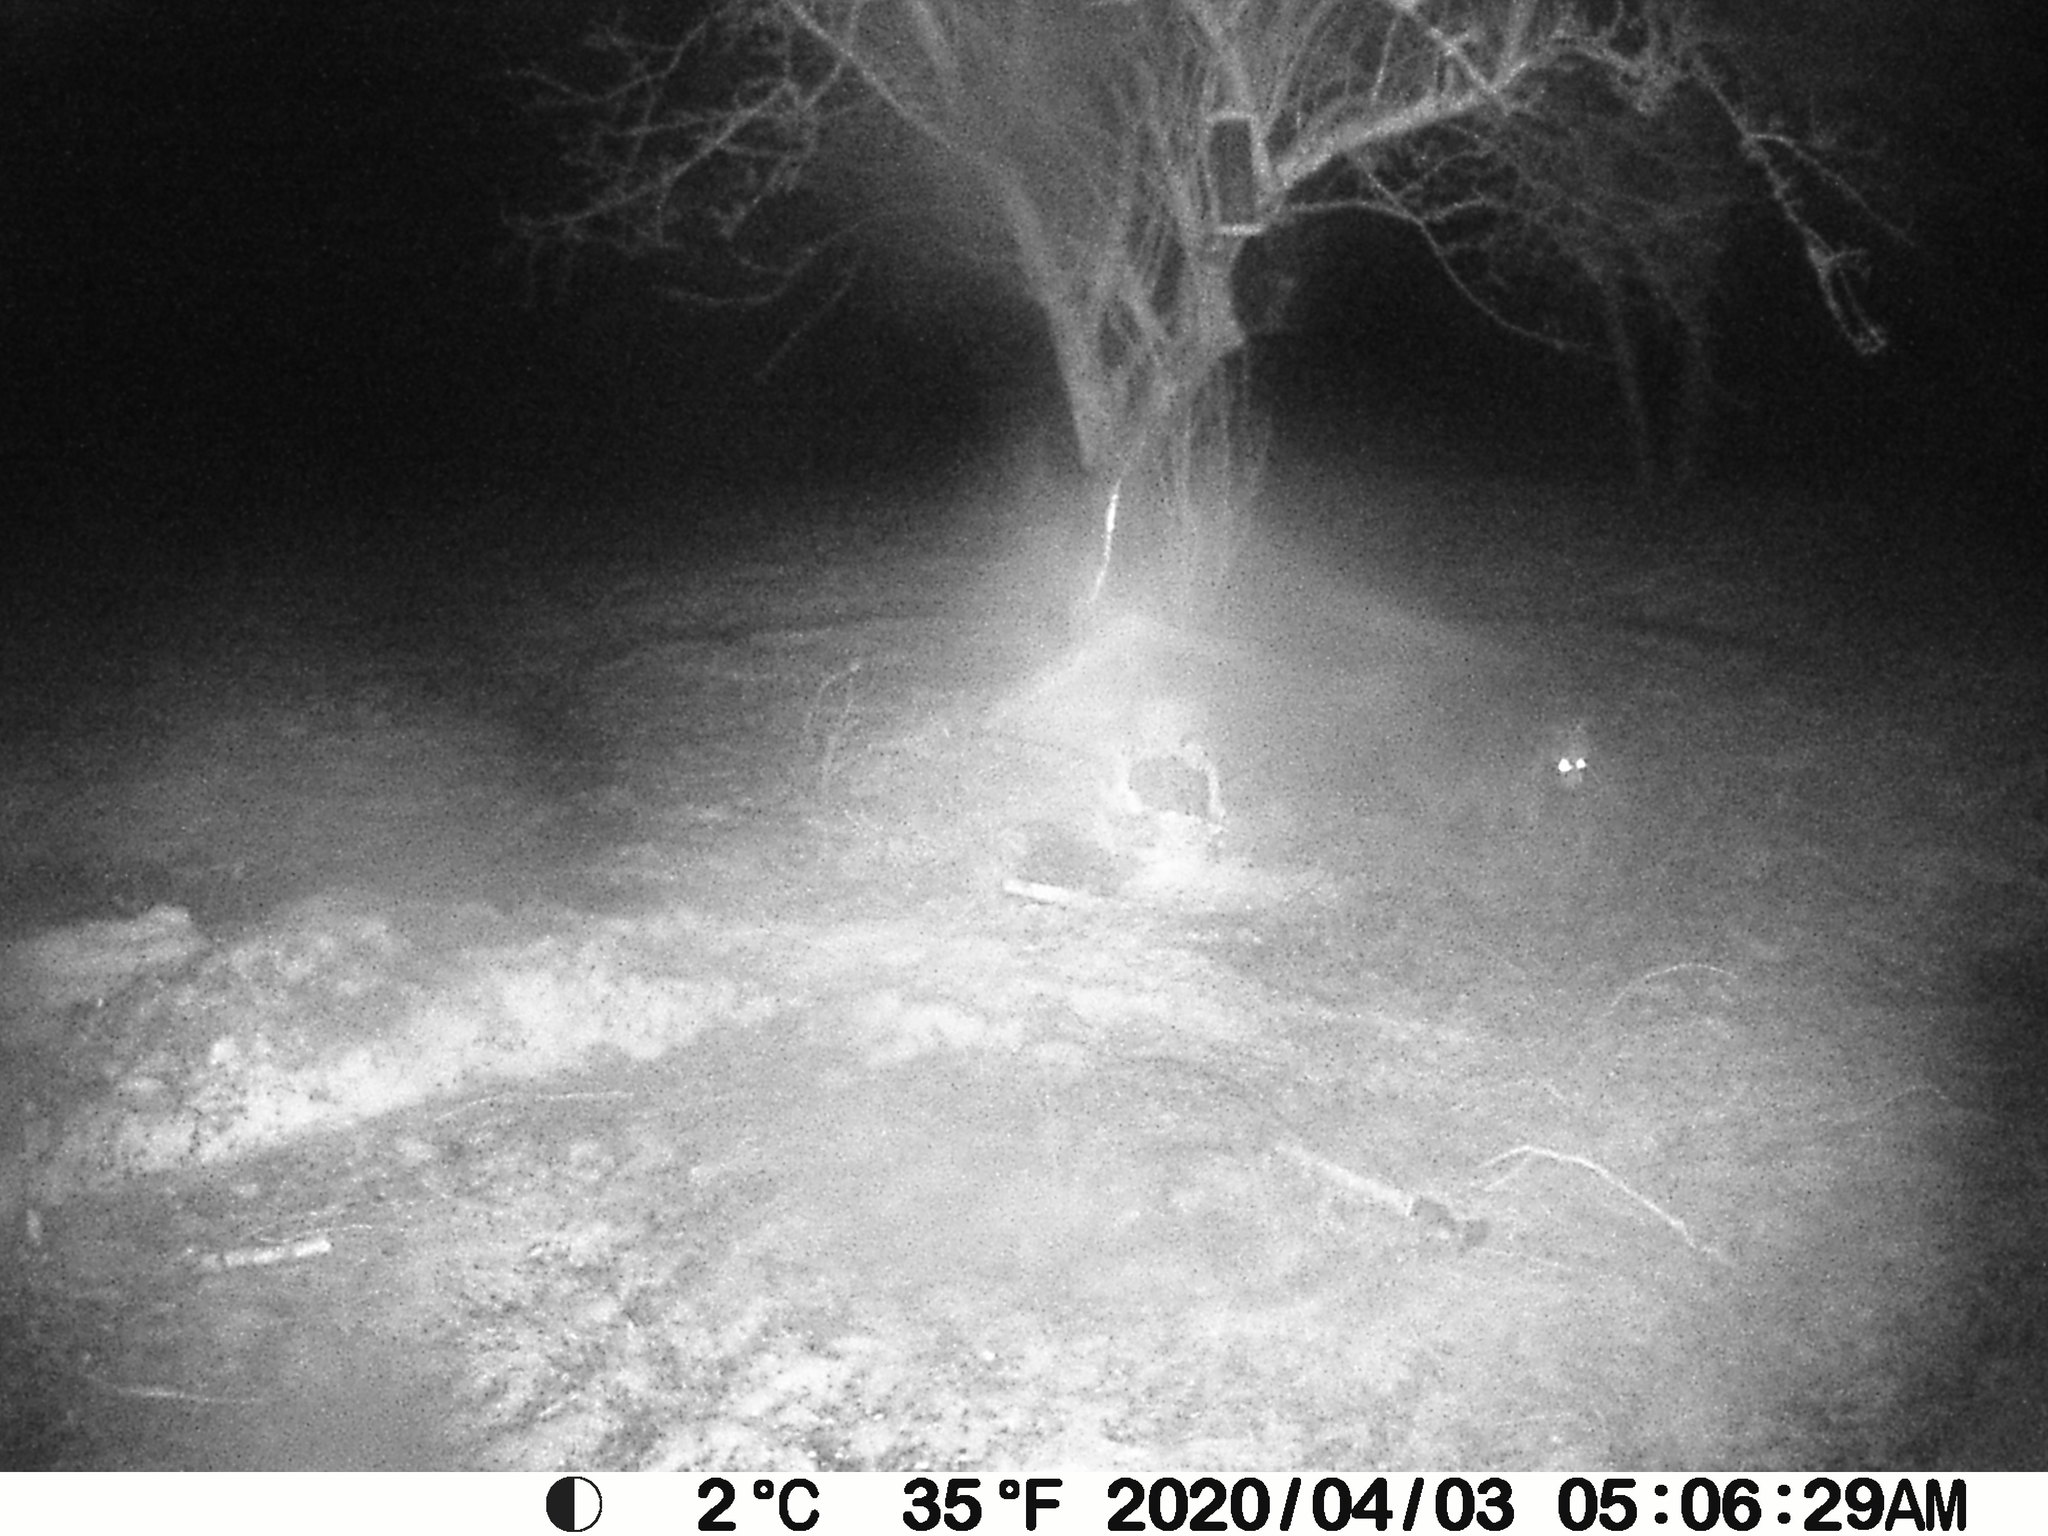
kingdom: Animalia
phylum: Chordata
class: Mammalia
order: Carnivora
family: Procyonidae
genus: Procyon
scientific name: Procyon lotor
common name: Raccoon
